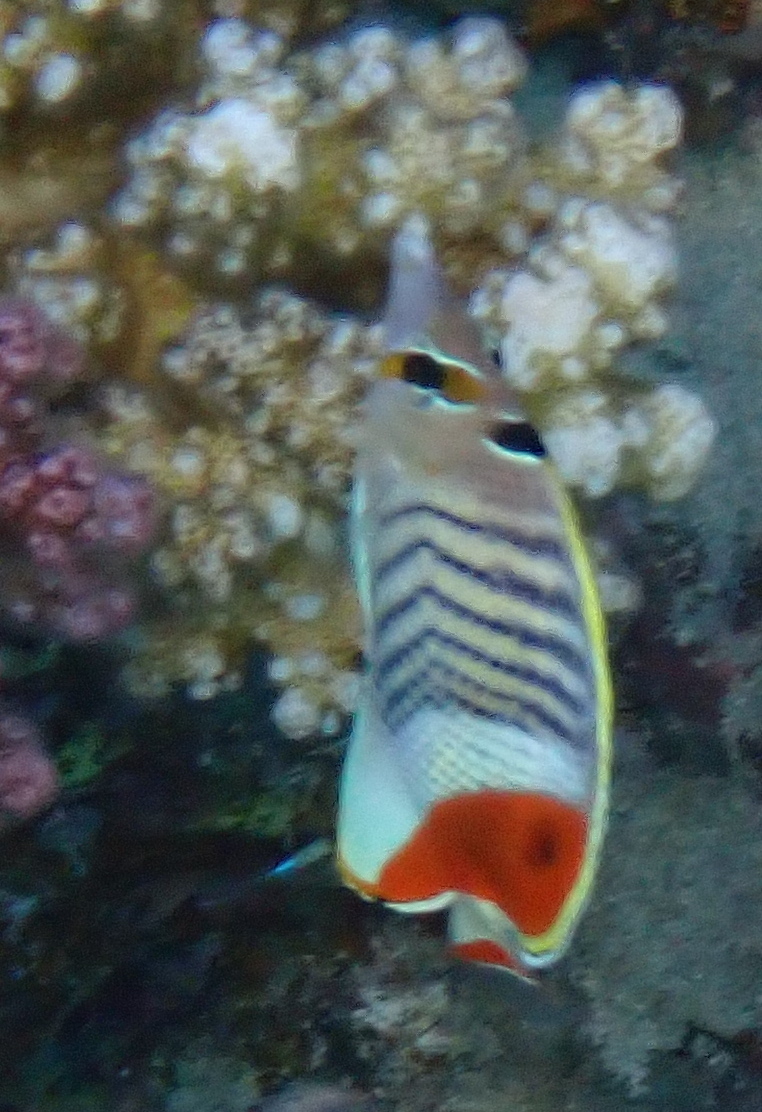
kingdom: Animalia
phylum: Chordata
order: Perciformes
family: Chaetodontidae
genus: Chaetodon
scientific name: Chaetodon paucifasciatus
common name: Crown butterflyfish
